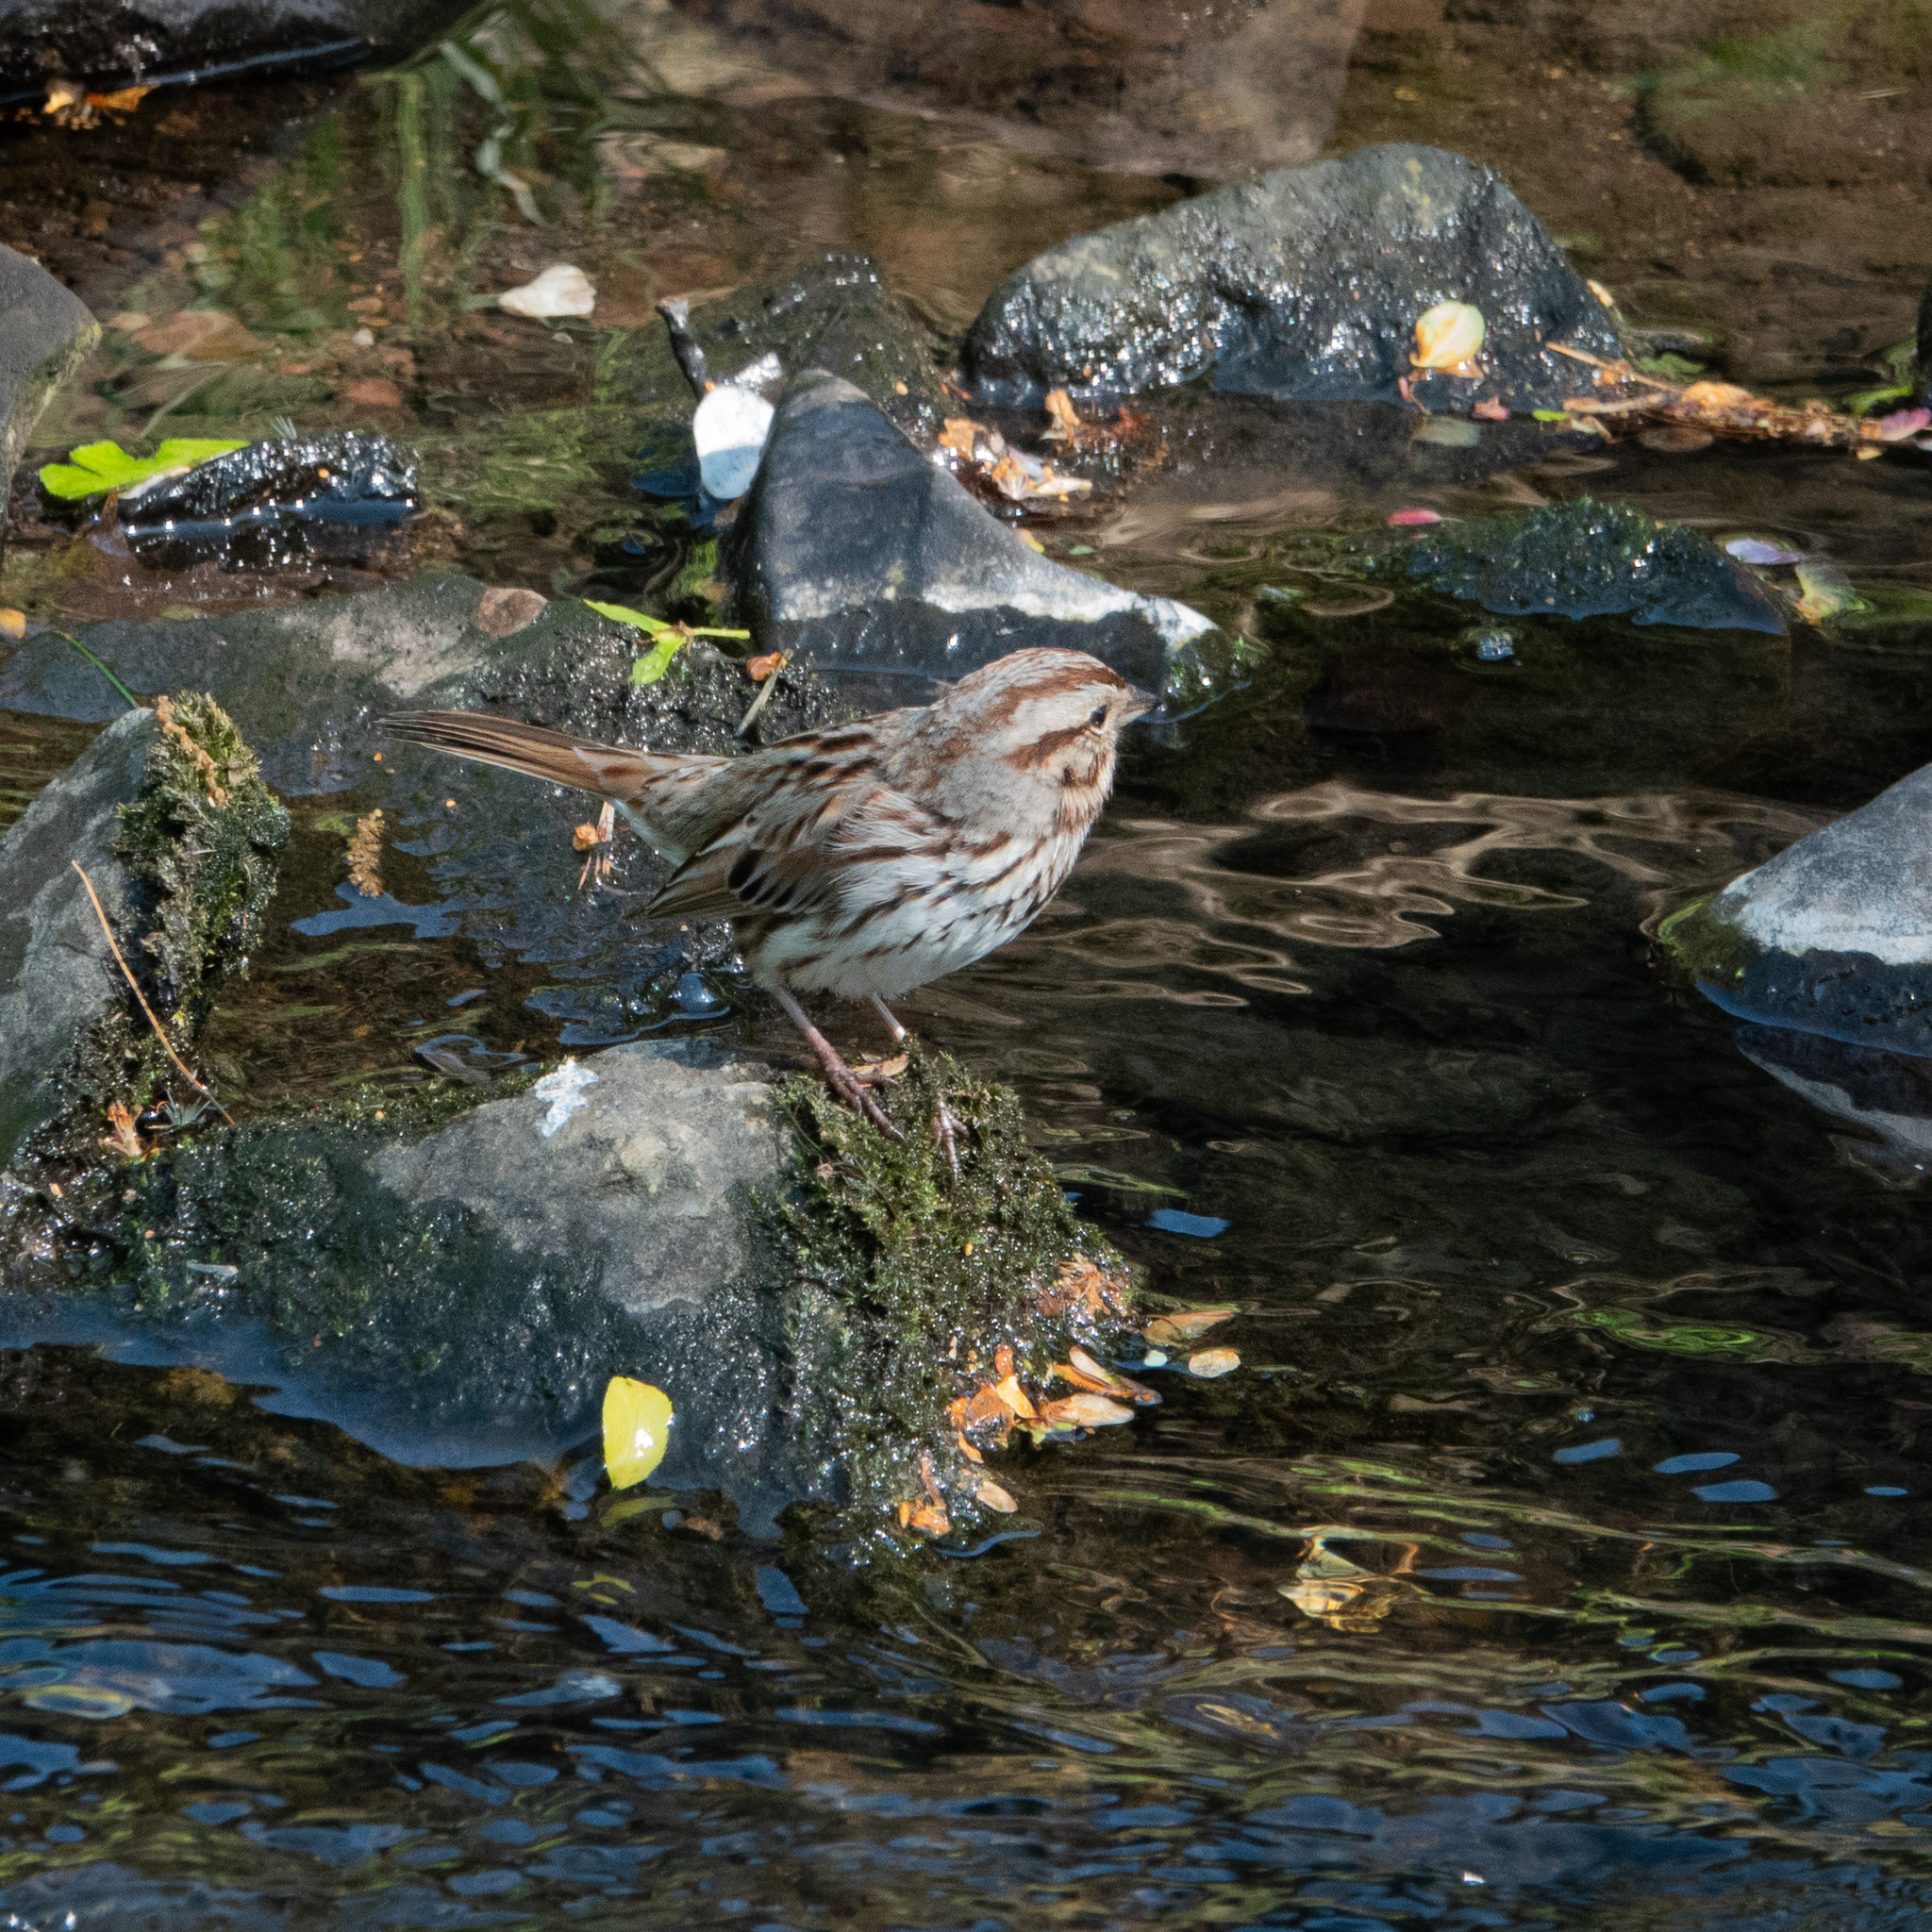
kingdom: Animalia
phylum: Chordata
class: Aves
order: Passeriformes
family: Passerellidae
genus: Melospiza
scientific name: Melospiza melodia
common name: Song sparrow
